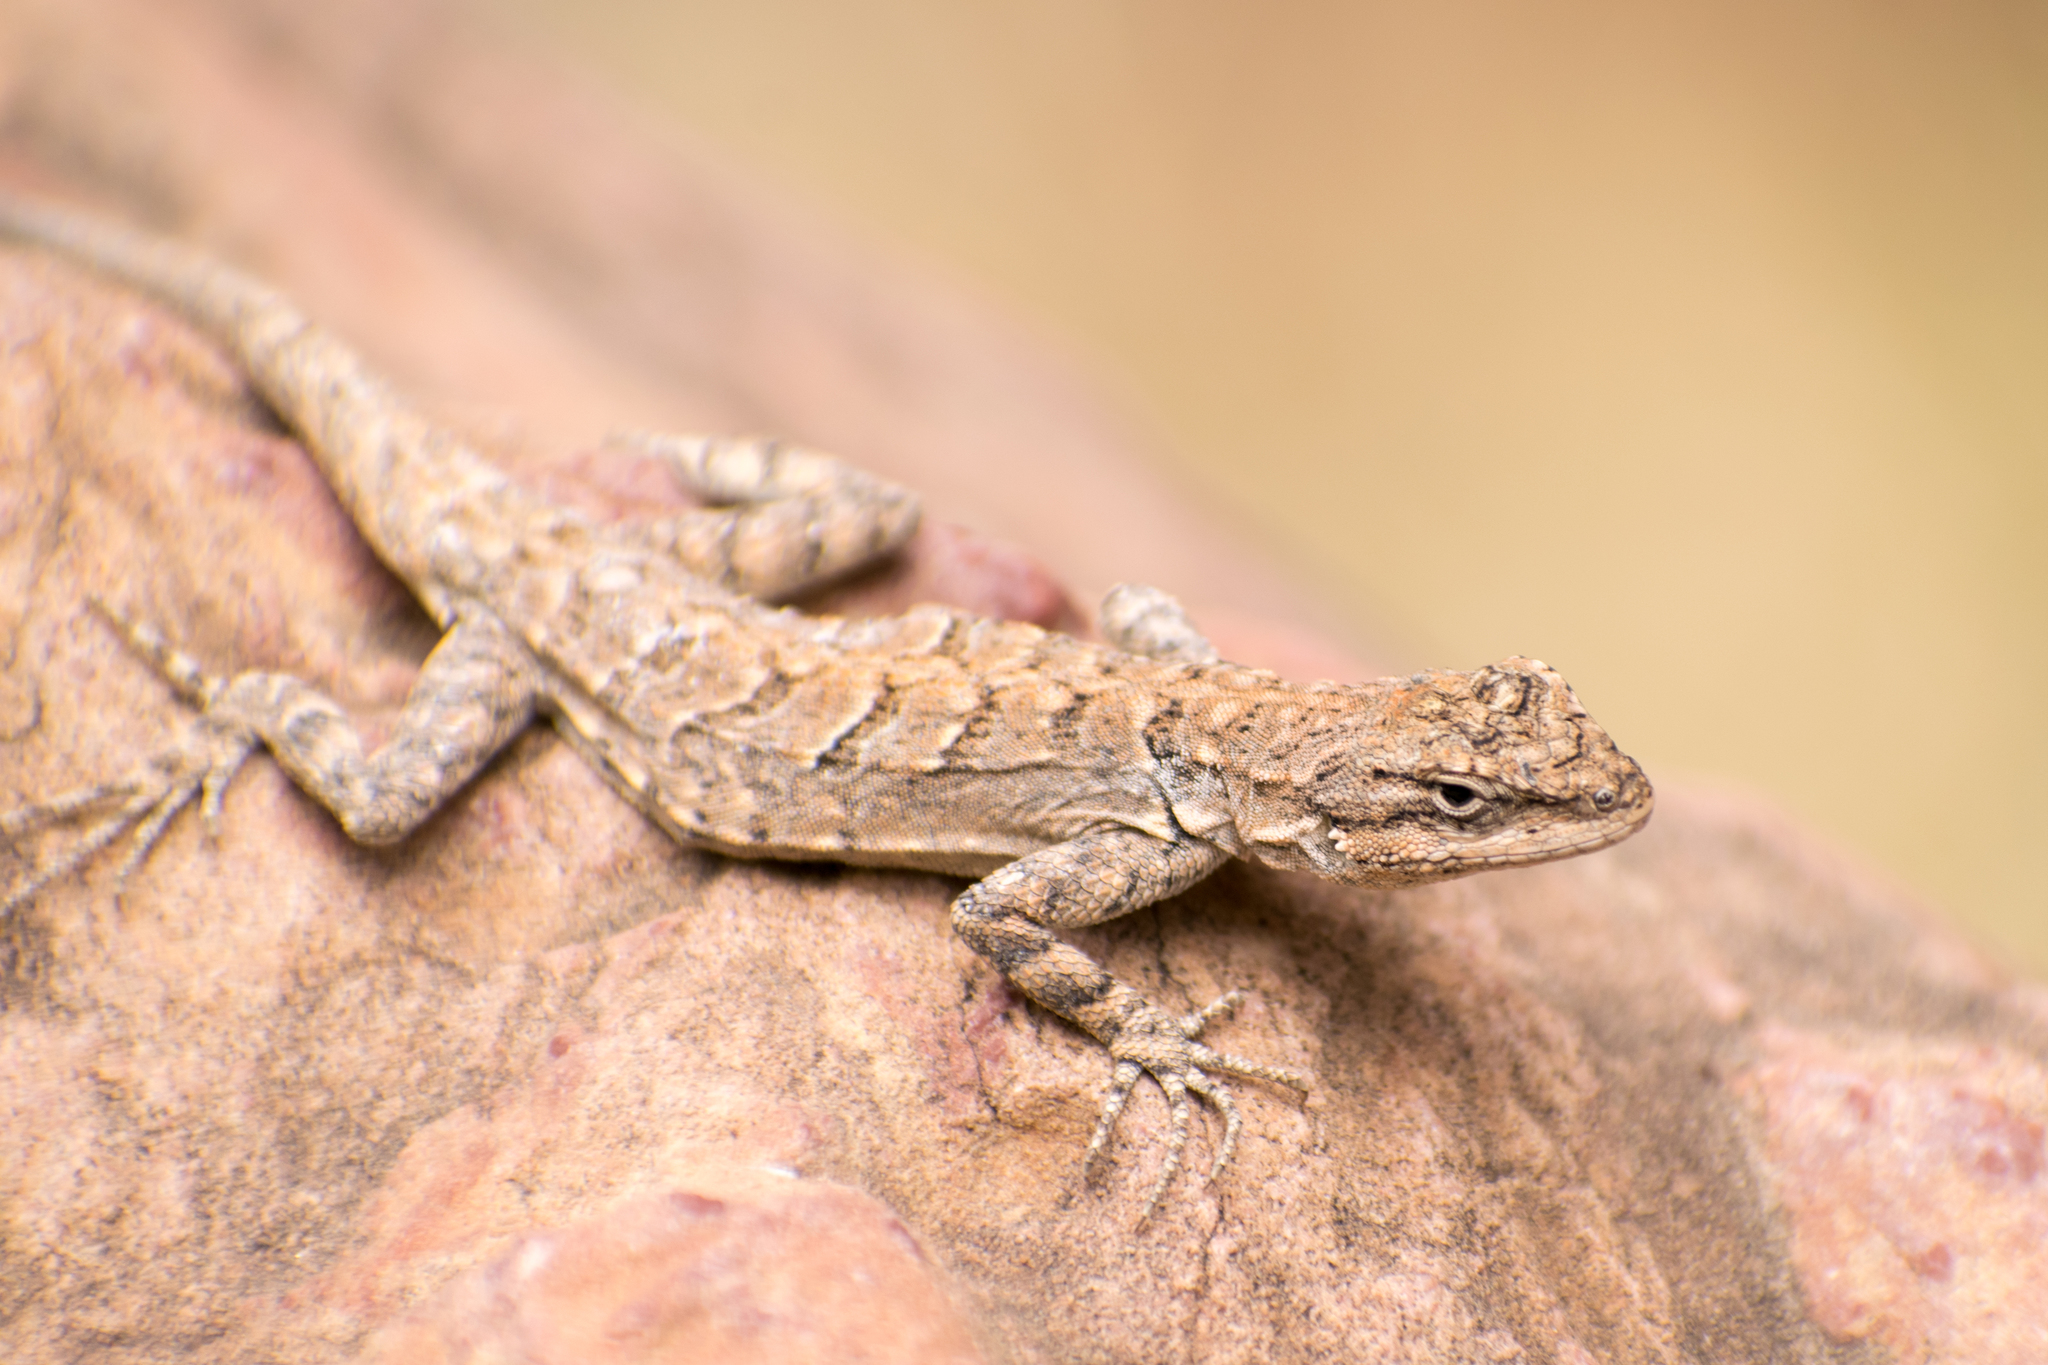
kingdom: Animalia
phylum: Chordata
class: Squamata
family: Phrynosomatidae
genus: Urosaurus
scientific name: Urosaurus ornatus
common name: Ornate tree lizard
